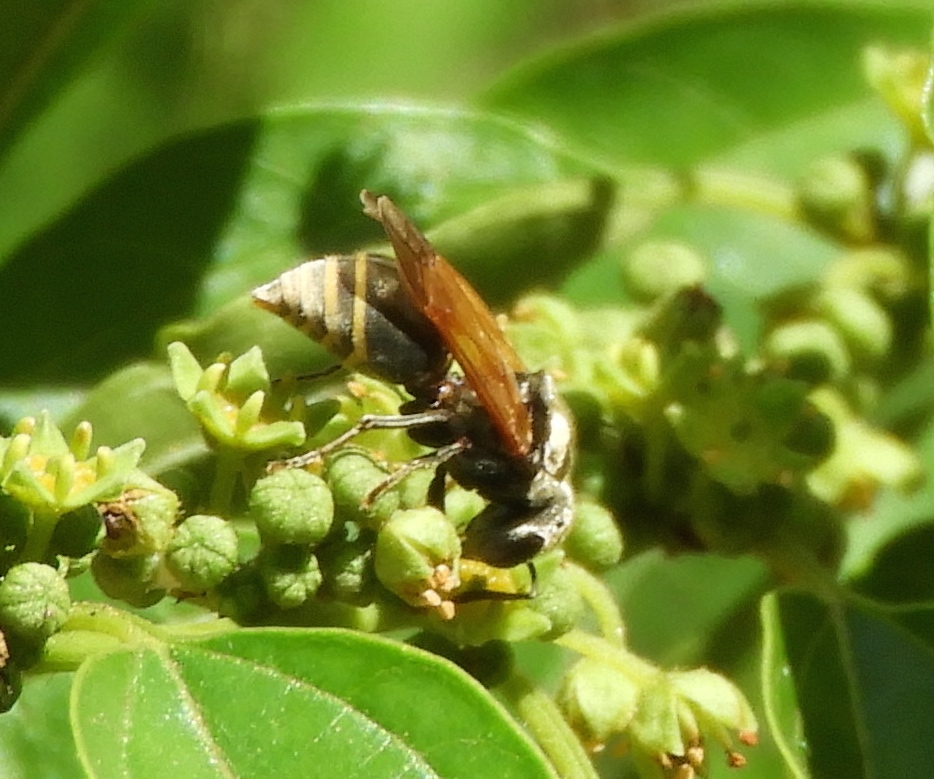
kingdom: Animalia
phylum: Arthropoda
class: Insecta
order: Hymenoptera
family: Vespidae
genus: Brachygastra
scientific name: Brachygastra mellifica
